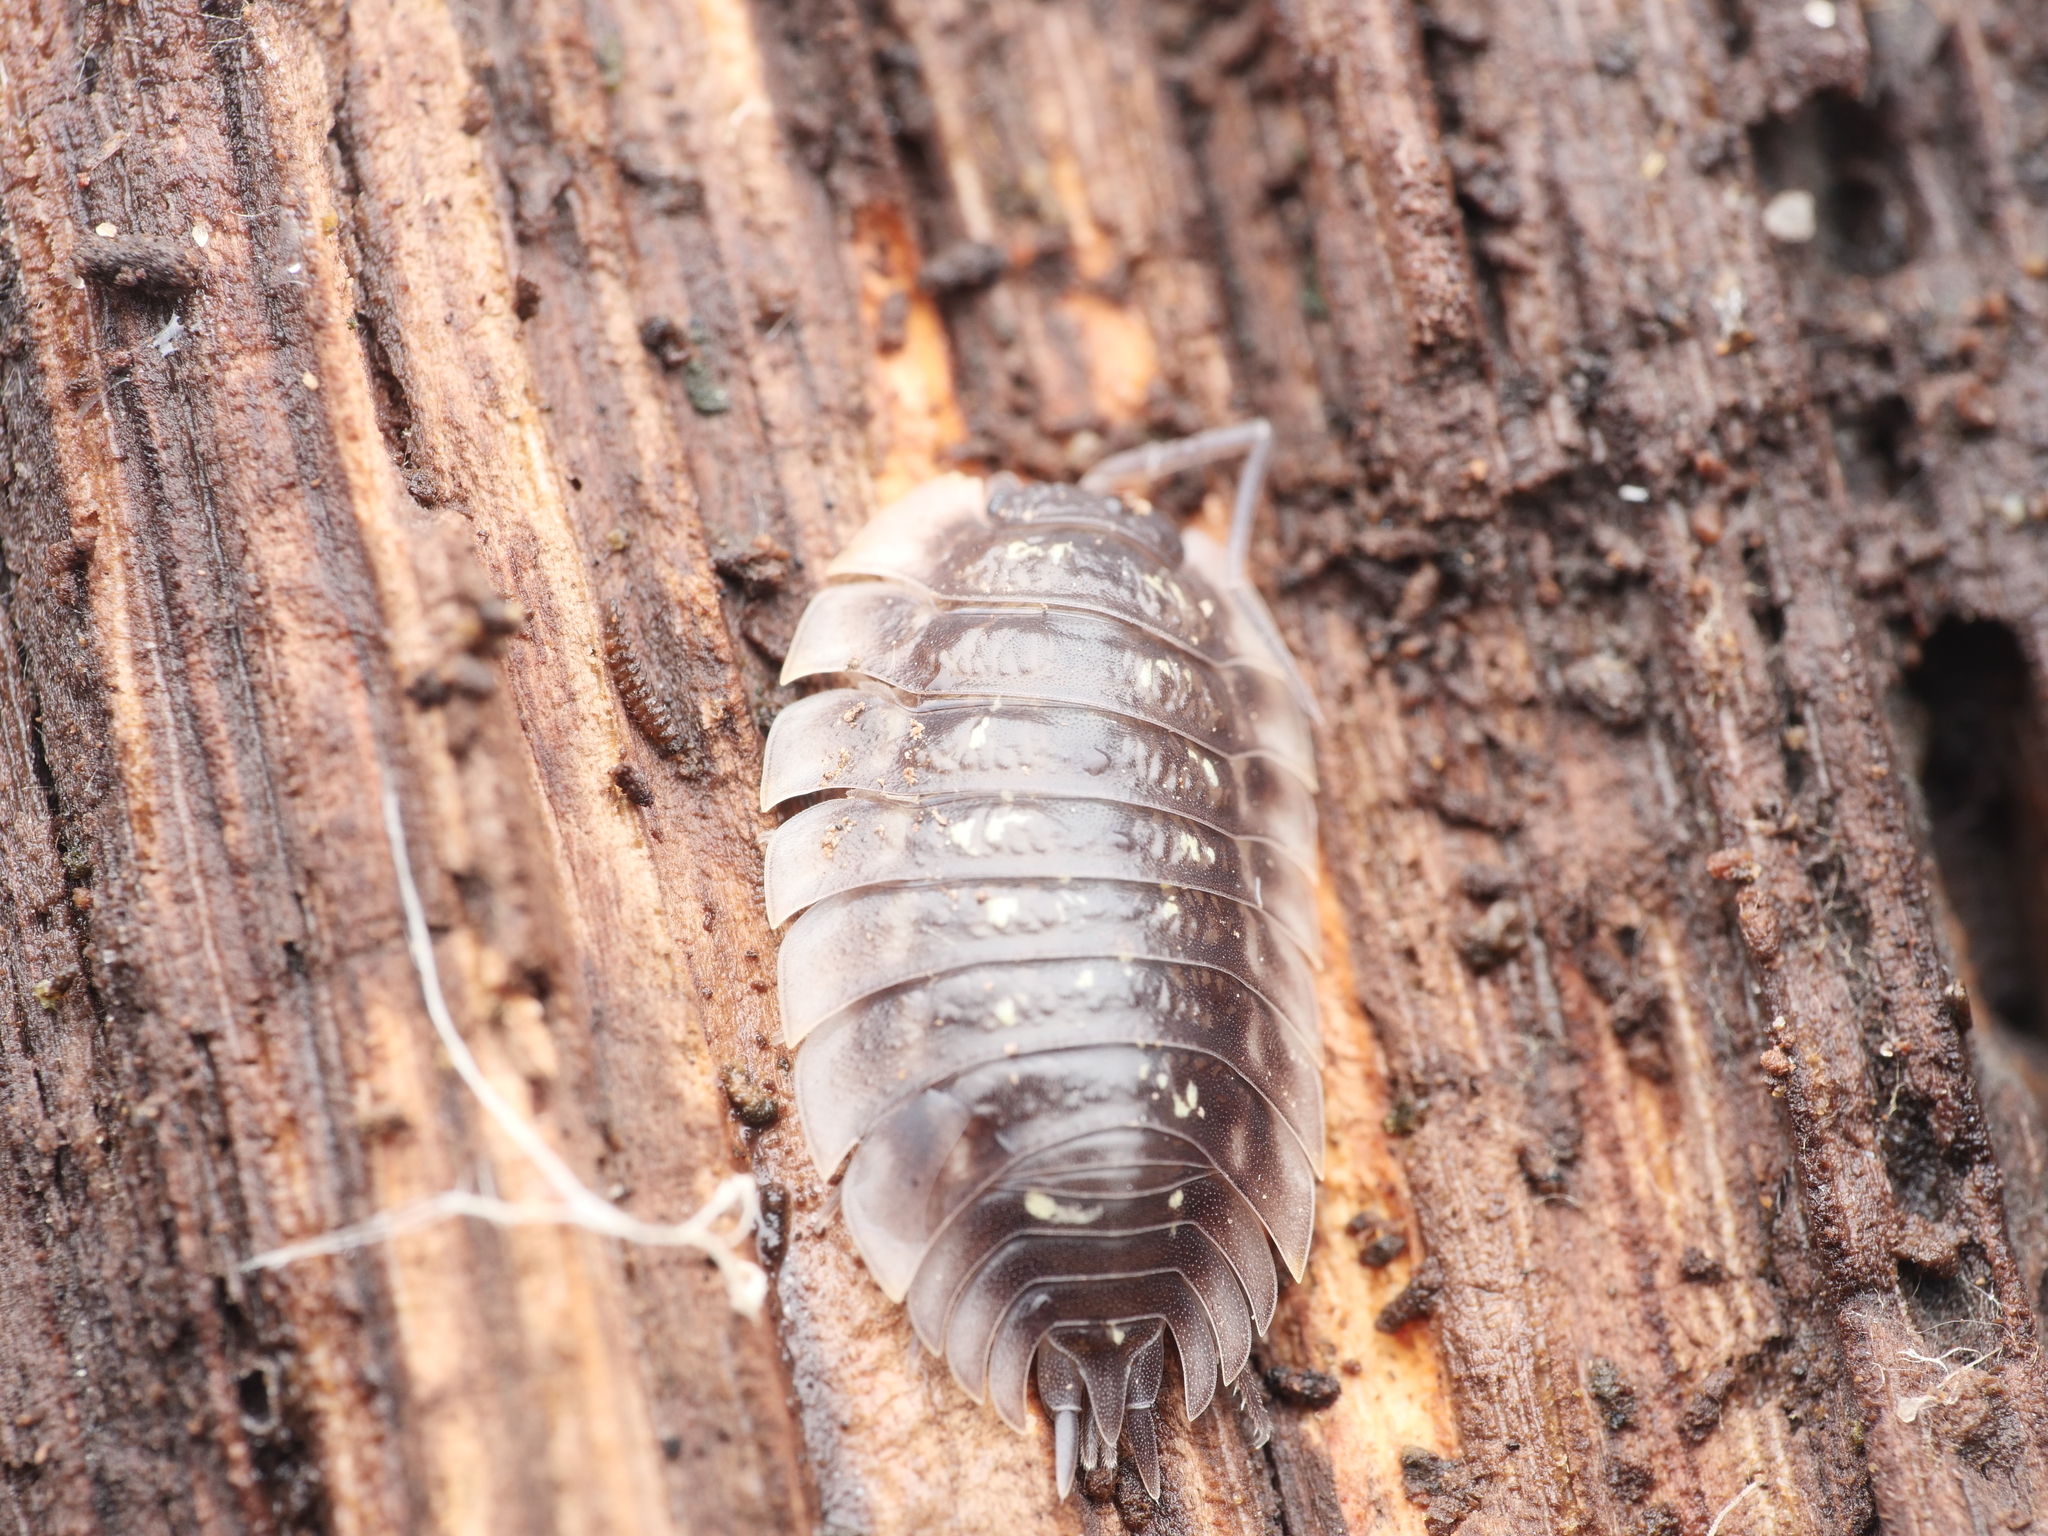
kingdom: Animalia
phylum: Arthropoda
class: Malacostraca
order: Isopoda
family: Oniscidae
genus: Oniscus
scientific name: Oniscus asellus
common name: Common shiny woodlouse
